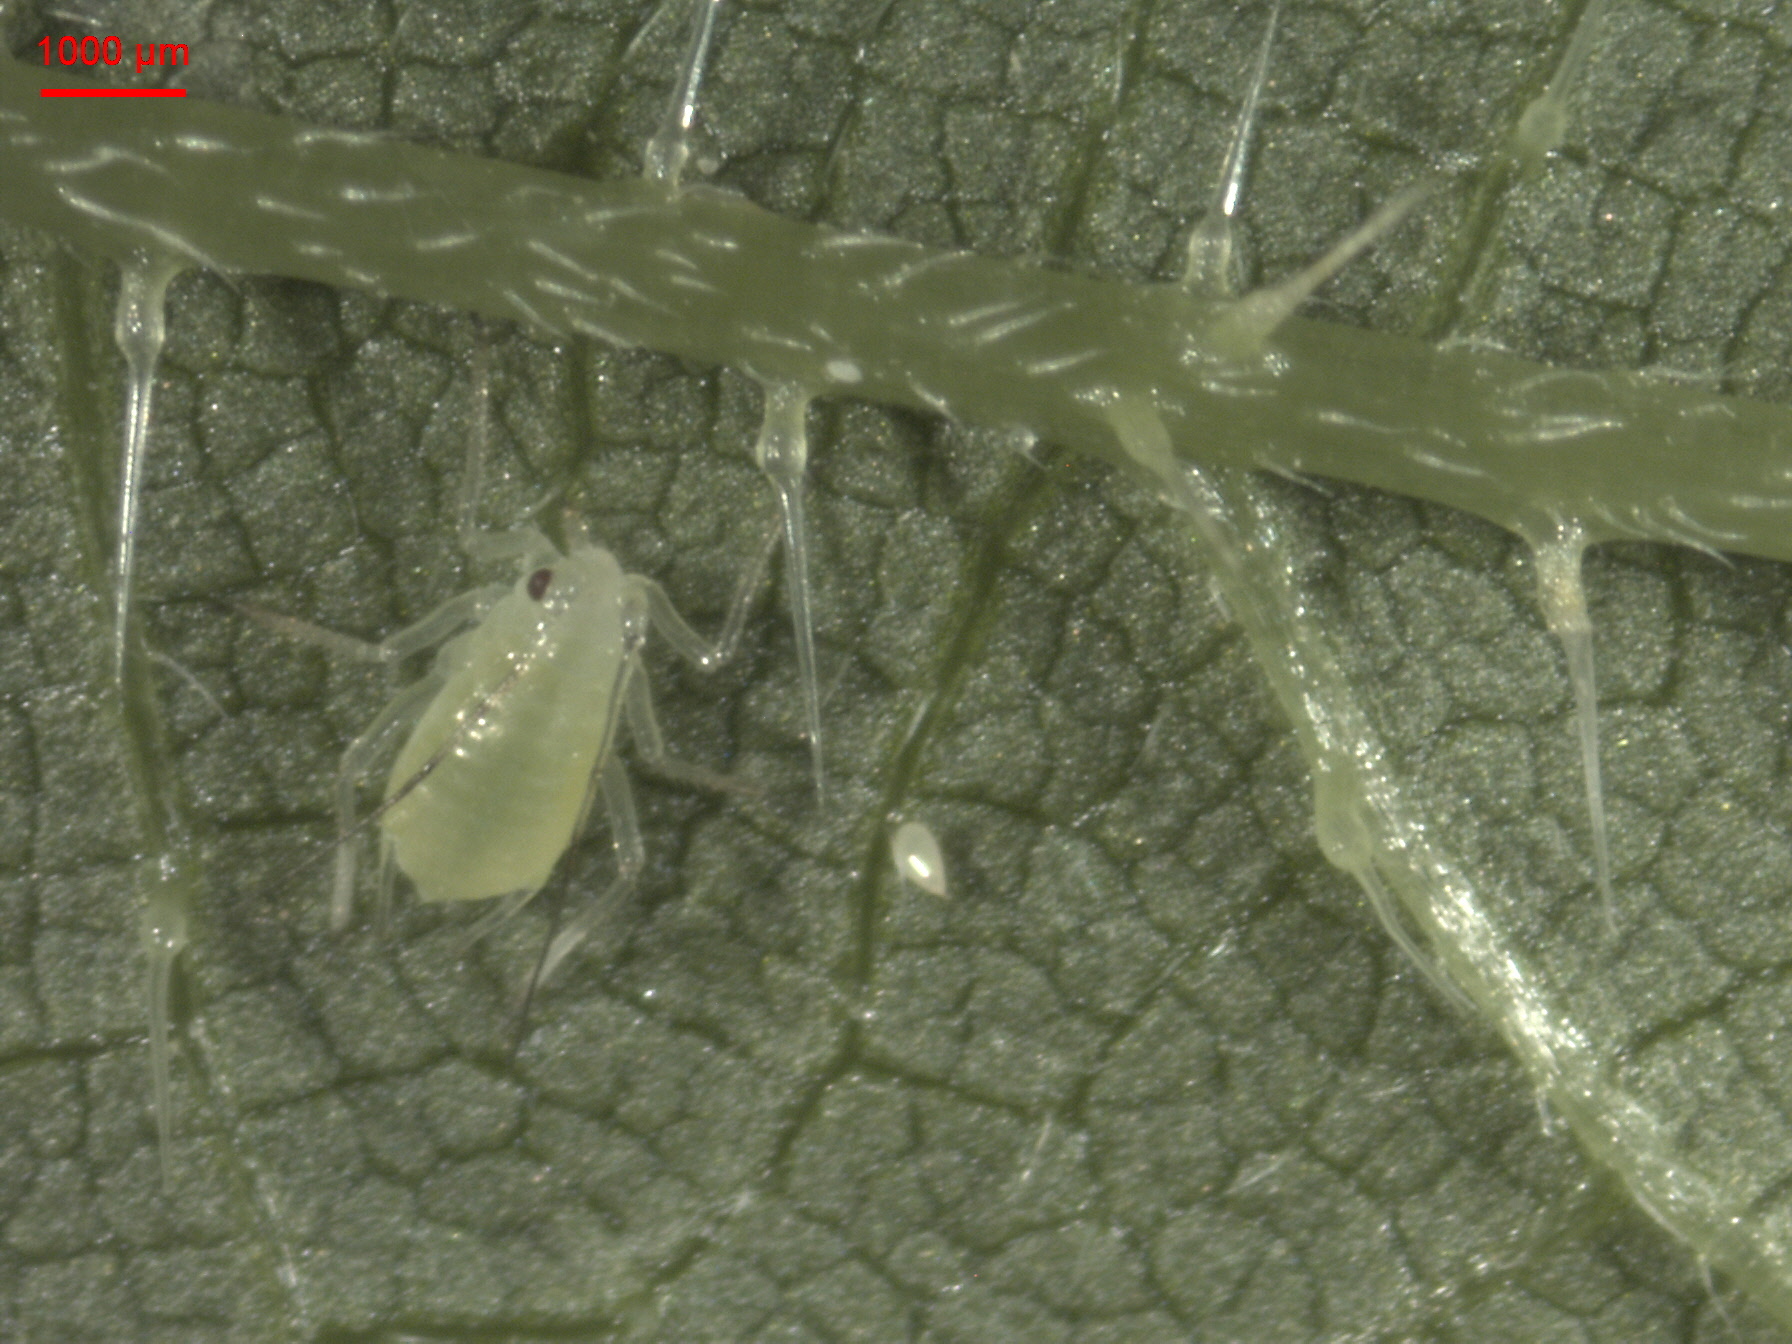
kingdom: Plantae
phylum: Tracheophyta
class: Magnoliopsida
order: Rosales
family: Urticaceae
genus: Urtica
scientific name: Urtica dioica
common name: Common nettle
